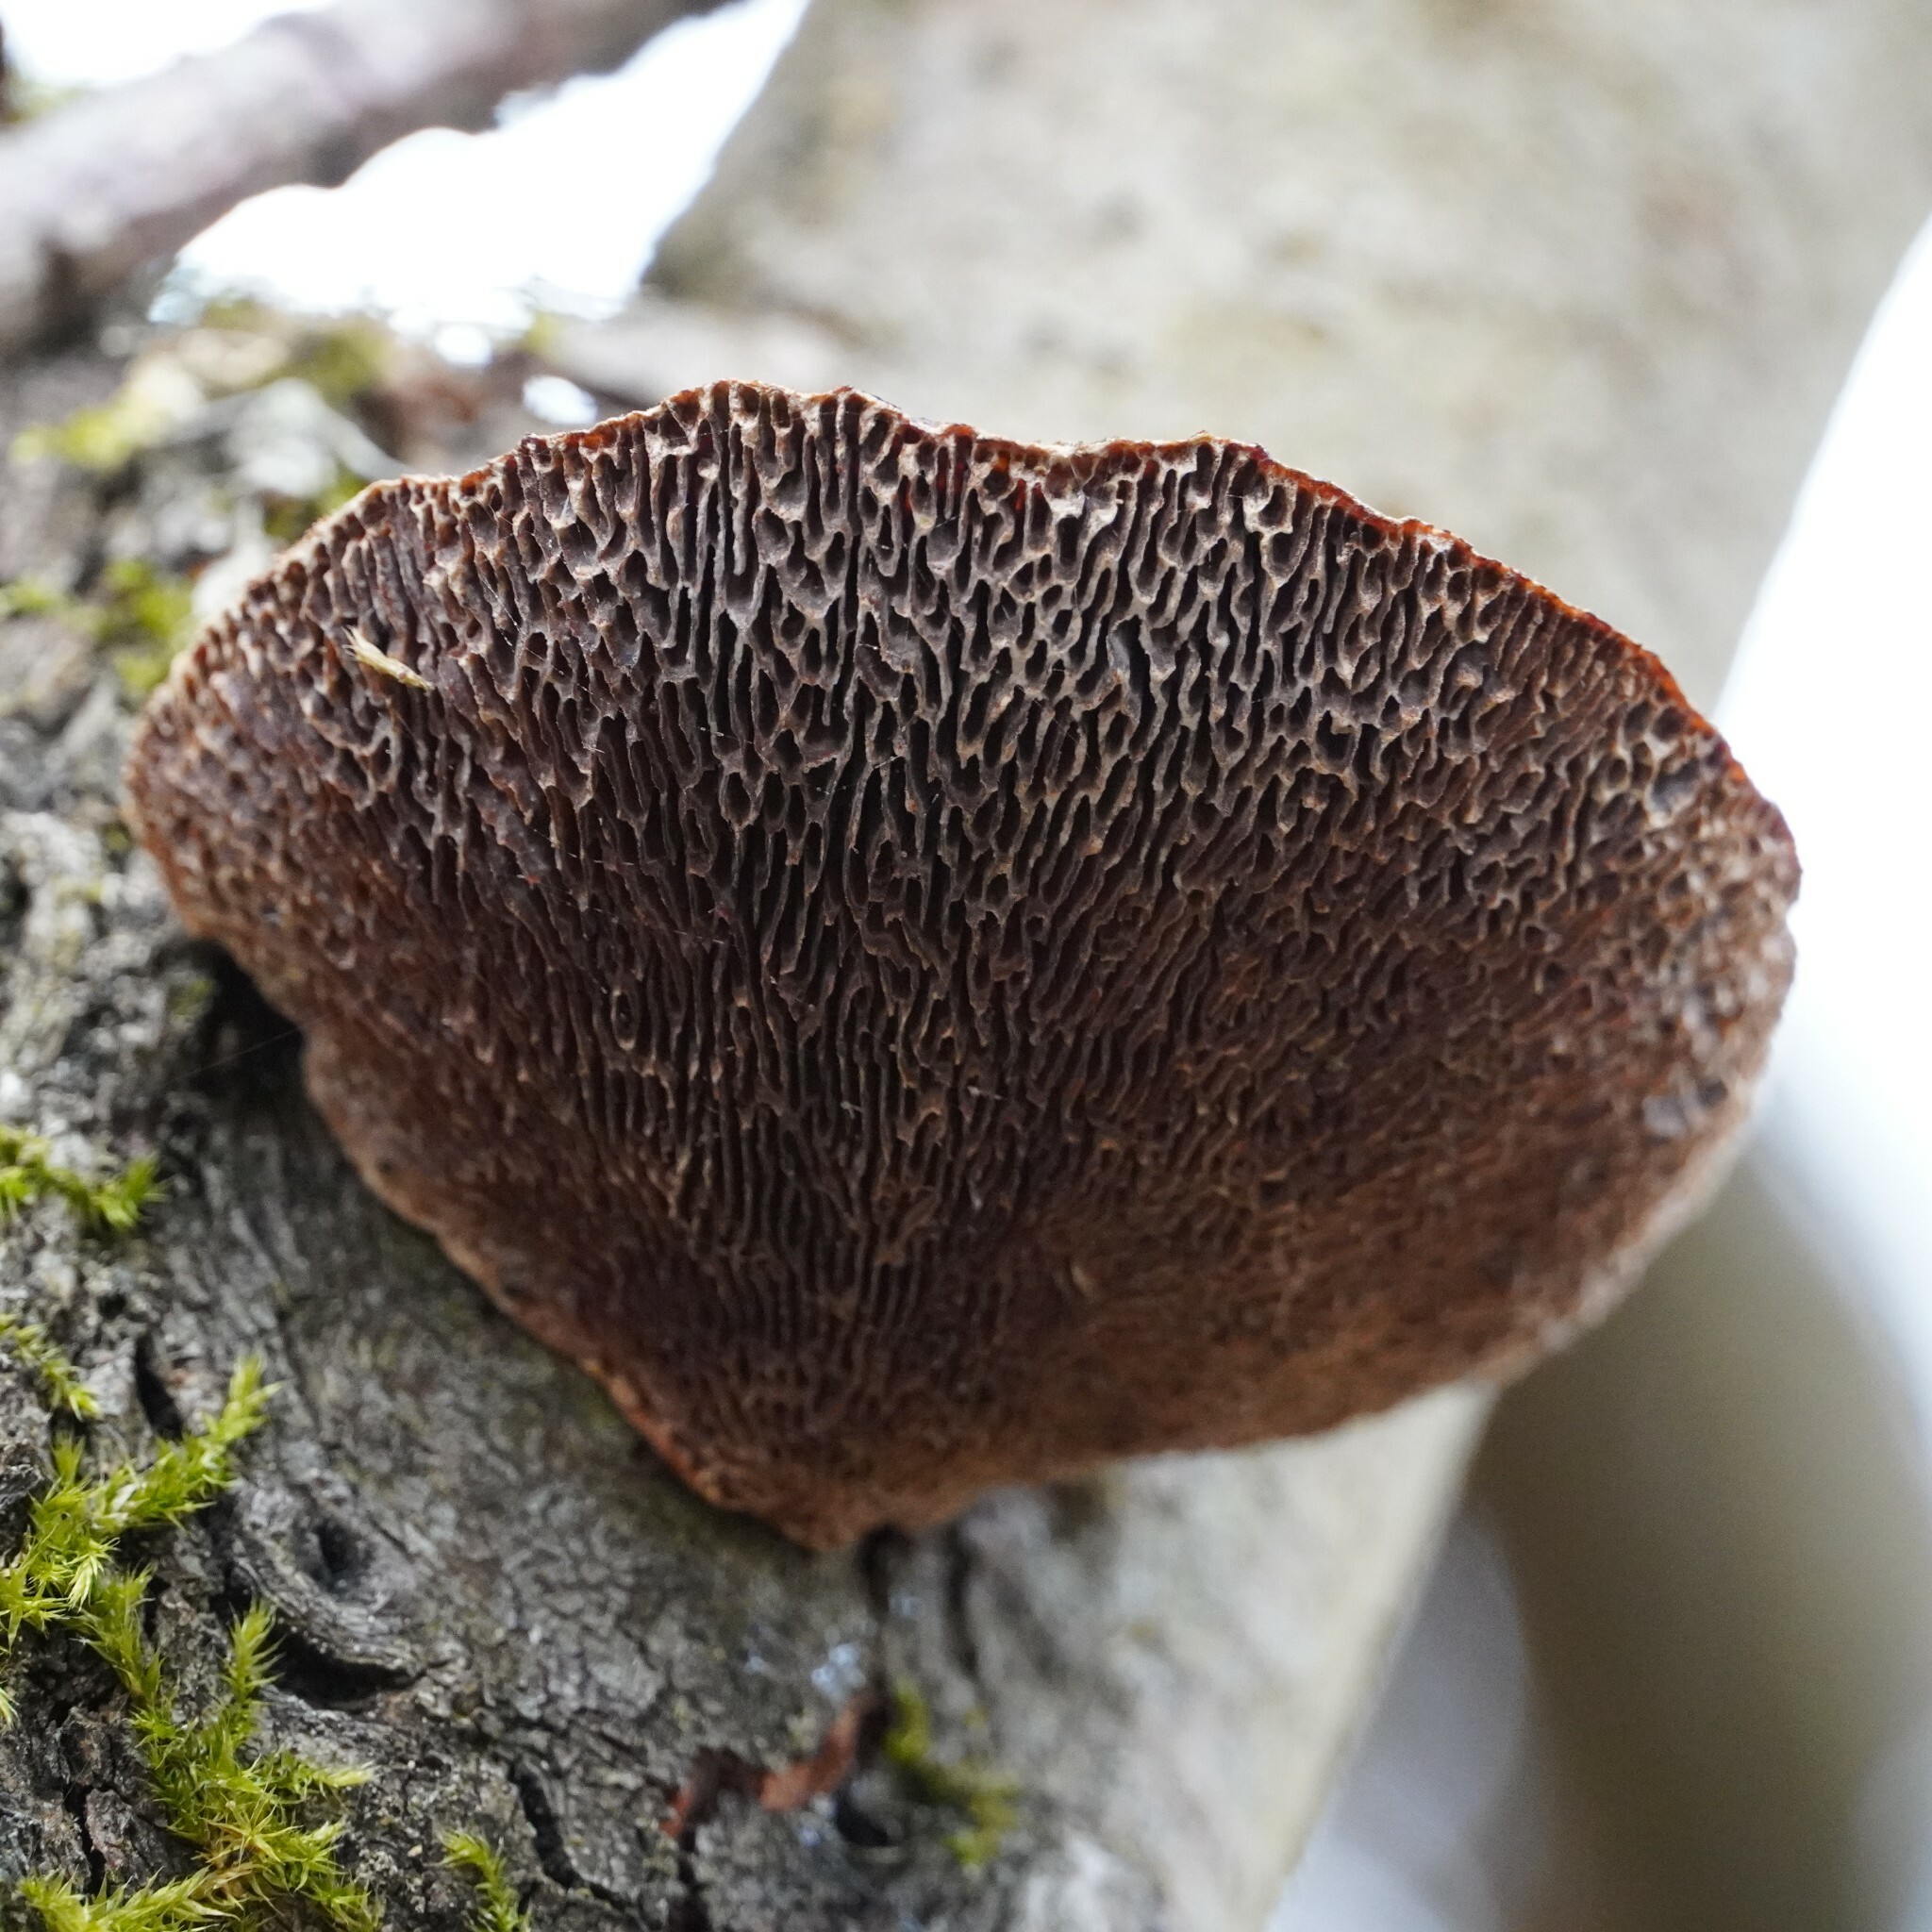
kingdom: Fungi
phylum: Basidiomycota
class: Agaricomycetes
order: Polyporales
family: Polyporaceae
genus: Daedaleopsis
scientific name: Daedaleopsis confragosa
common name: Blushing bracket
